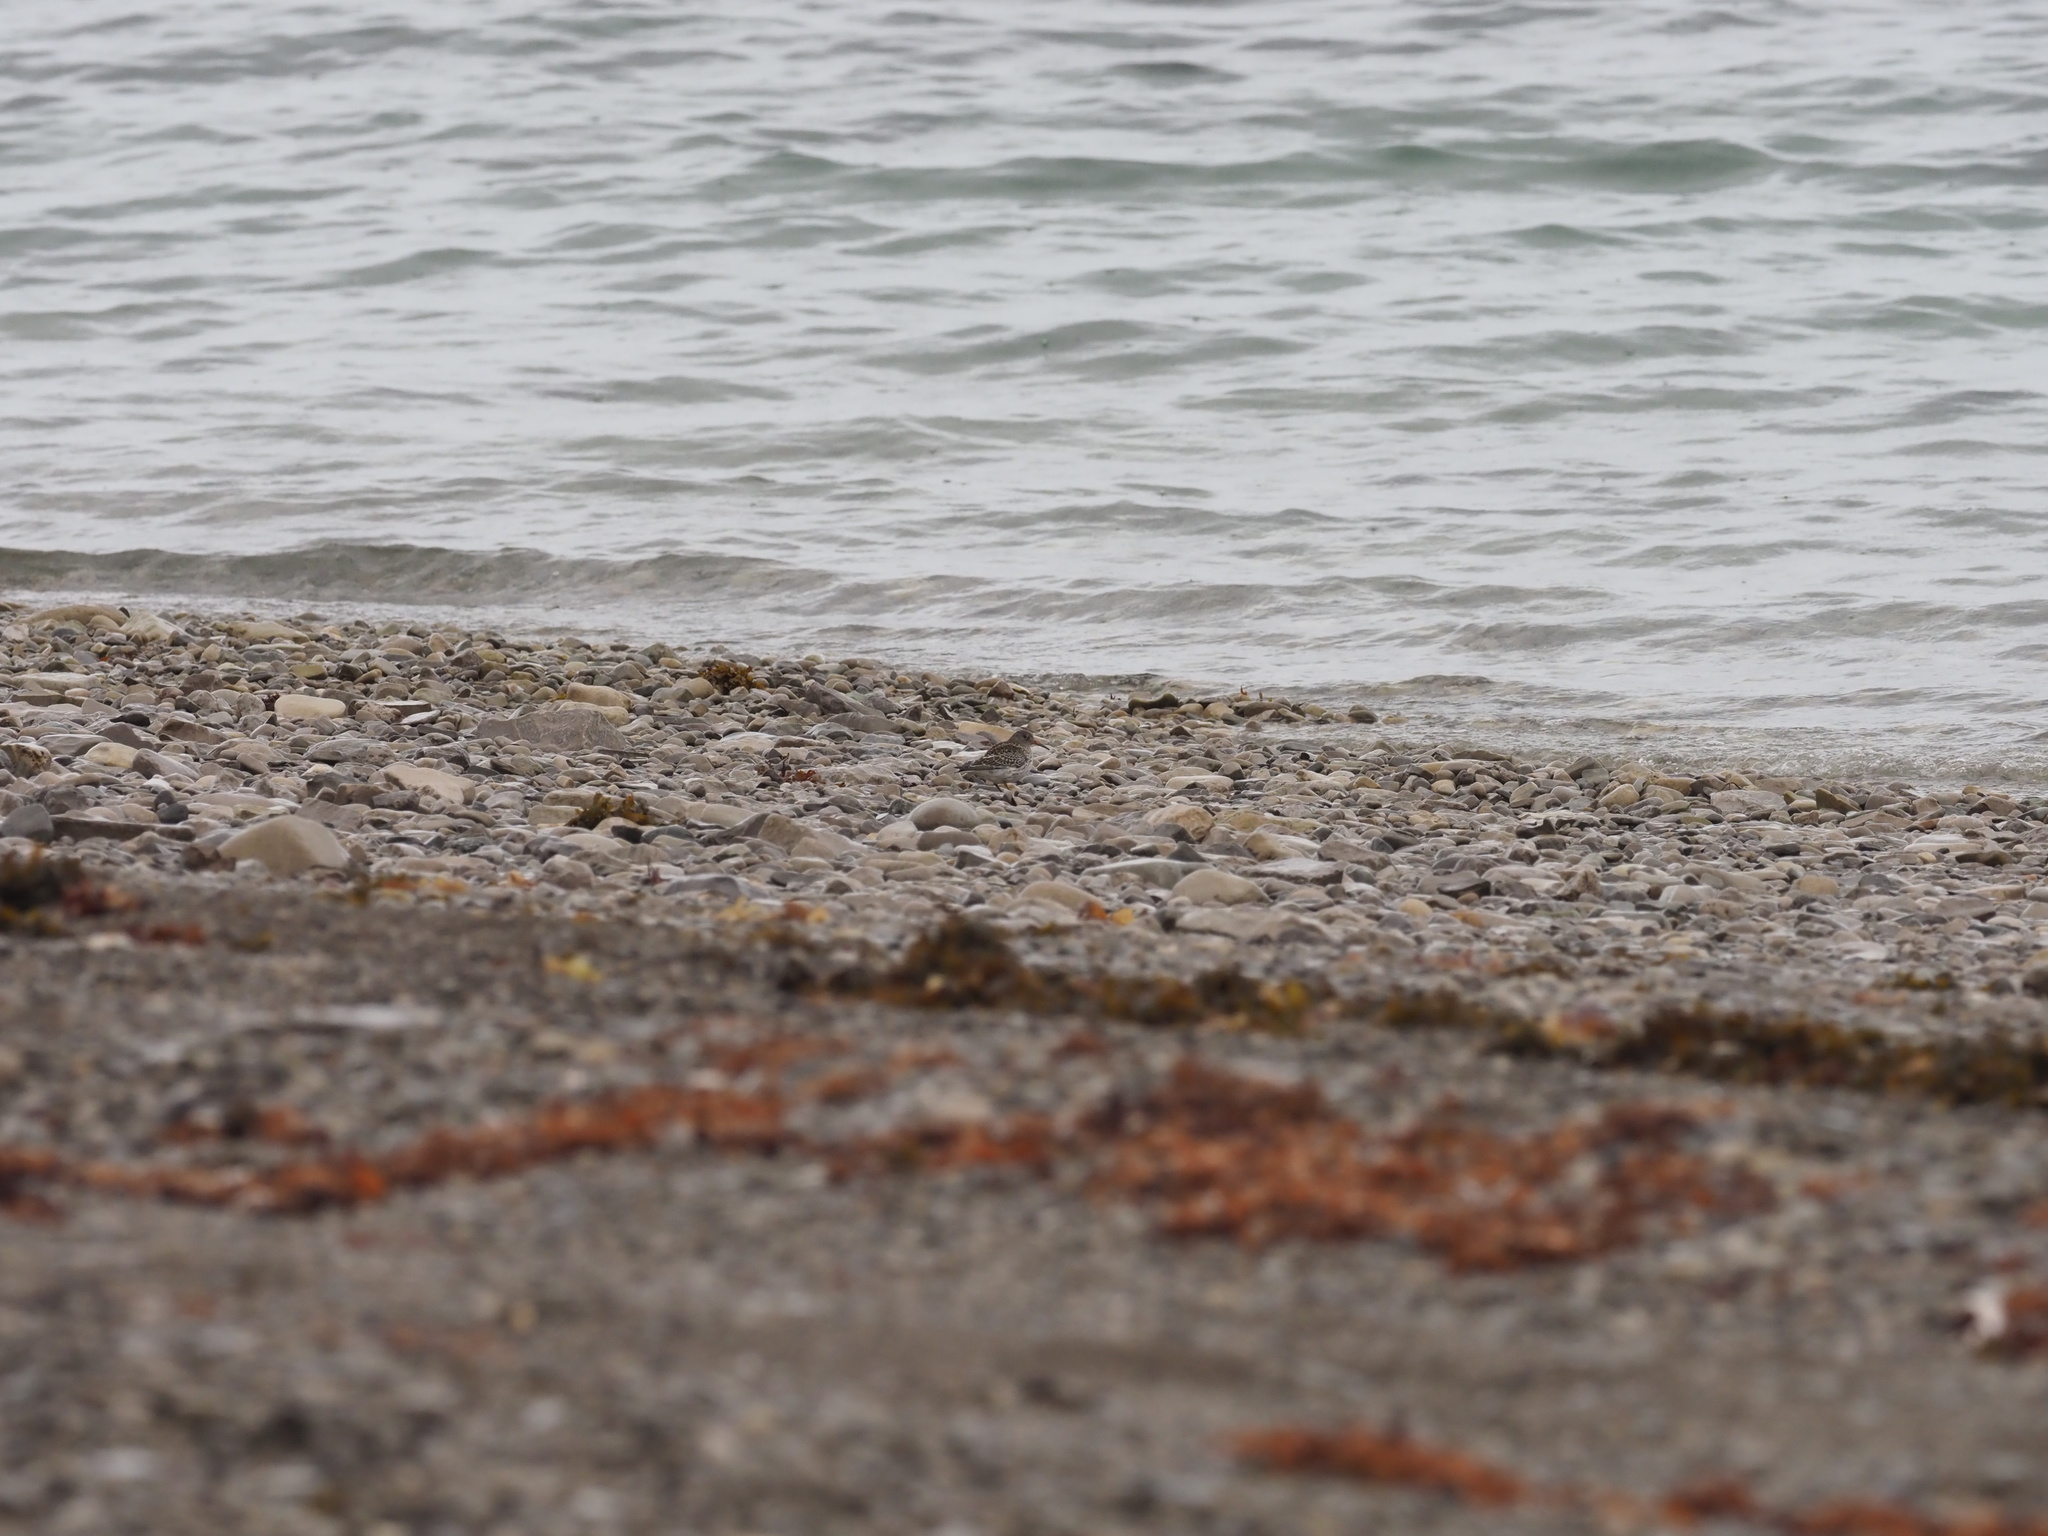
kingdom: Animalia
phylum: Chordata
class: Aves
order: Charadriiformes
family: Scolopacidae
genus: Calidris
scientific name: Calidris maritima
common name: Purple sandpiper
